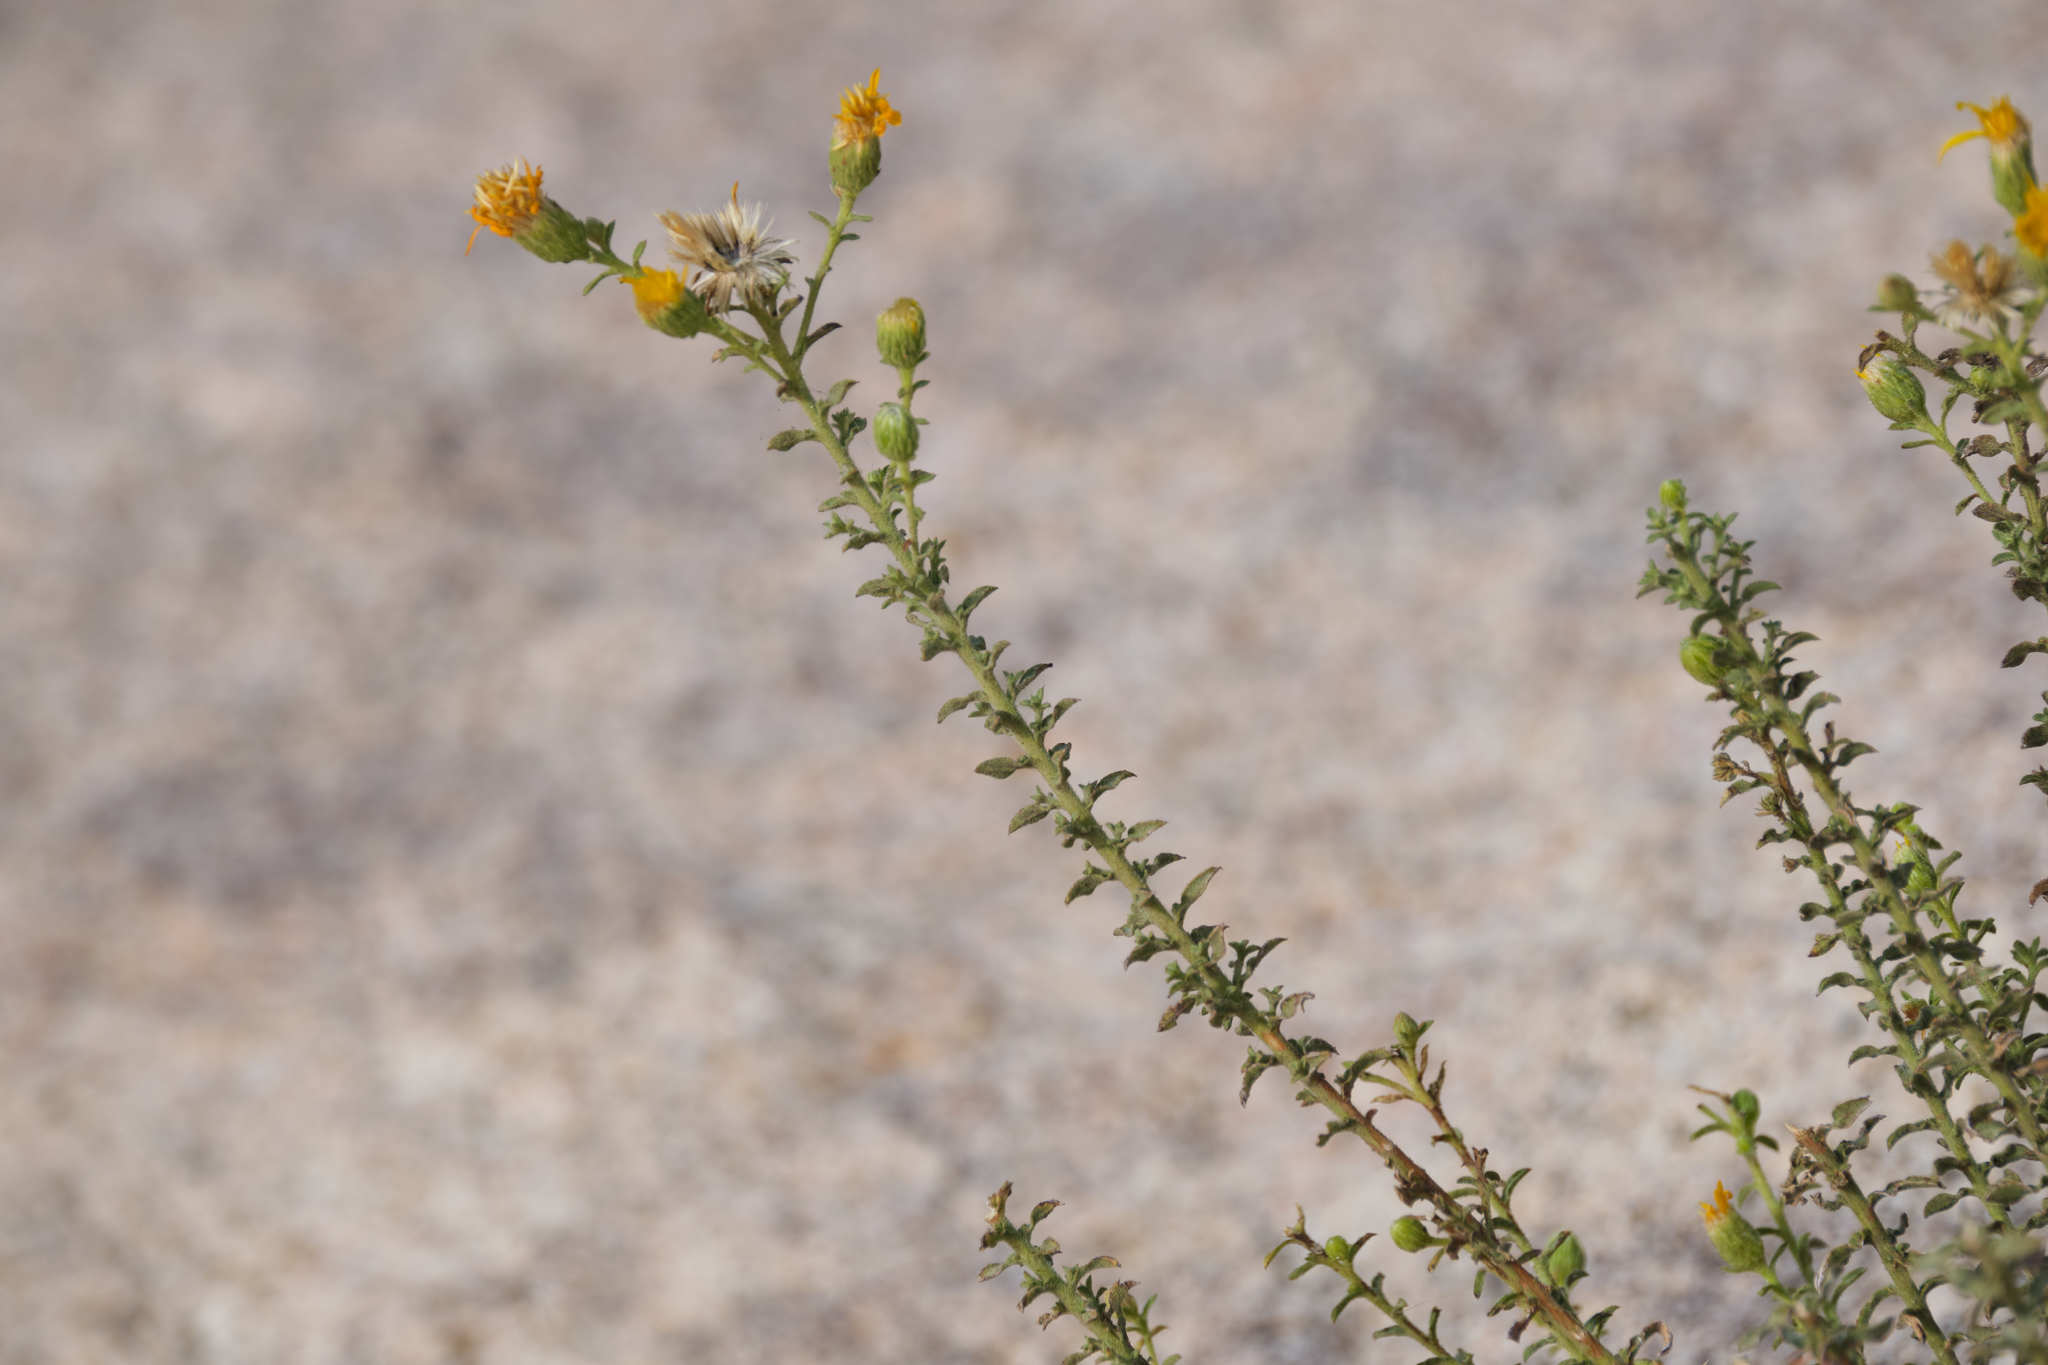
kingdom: Plantae
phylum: Tracheophyta
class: Magnoliopsida
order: Asterales
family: Asteraceae
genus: Heterotheca
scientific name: Heterotheca joshuana
